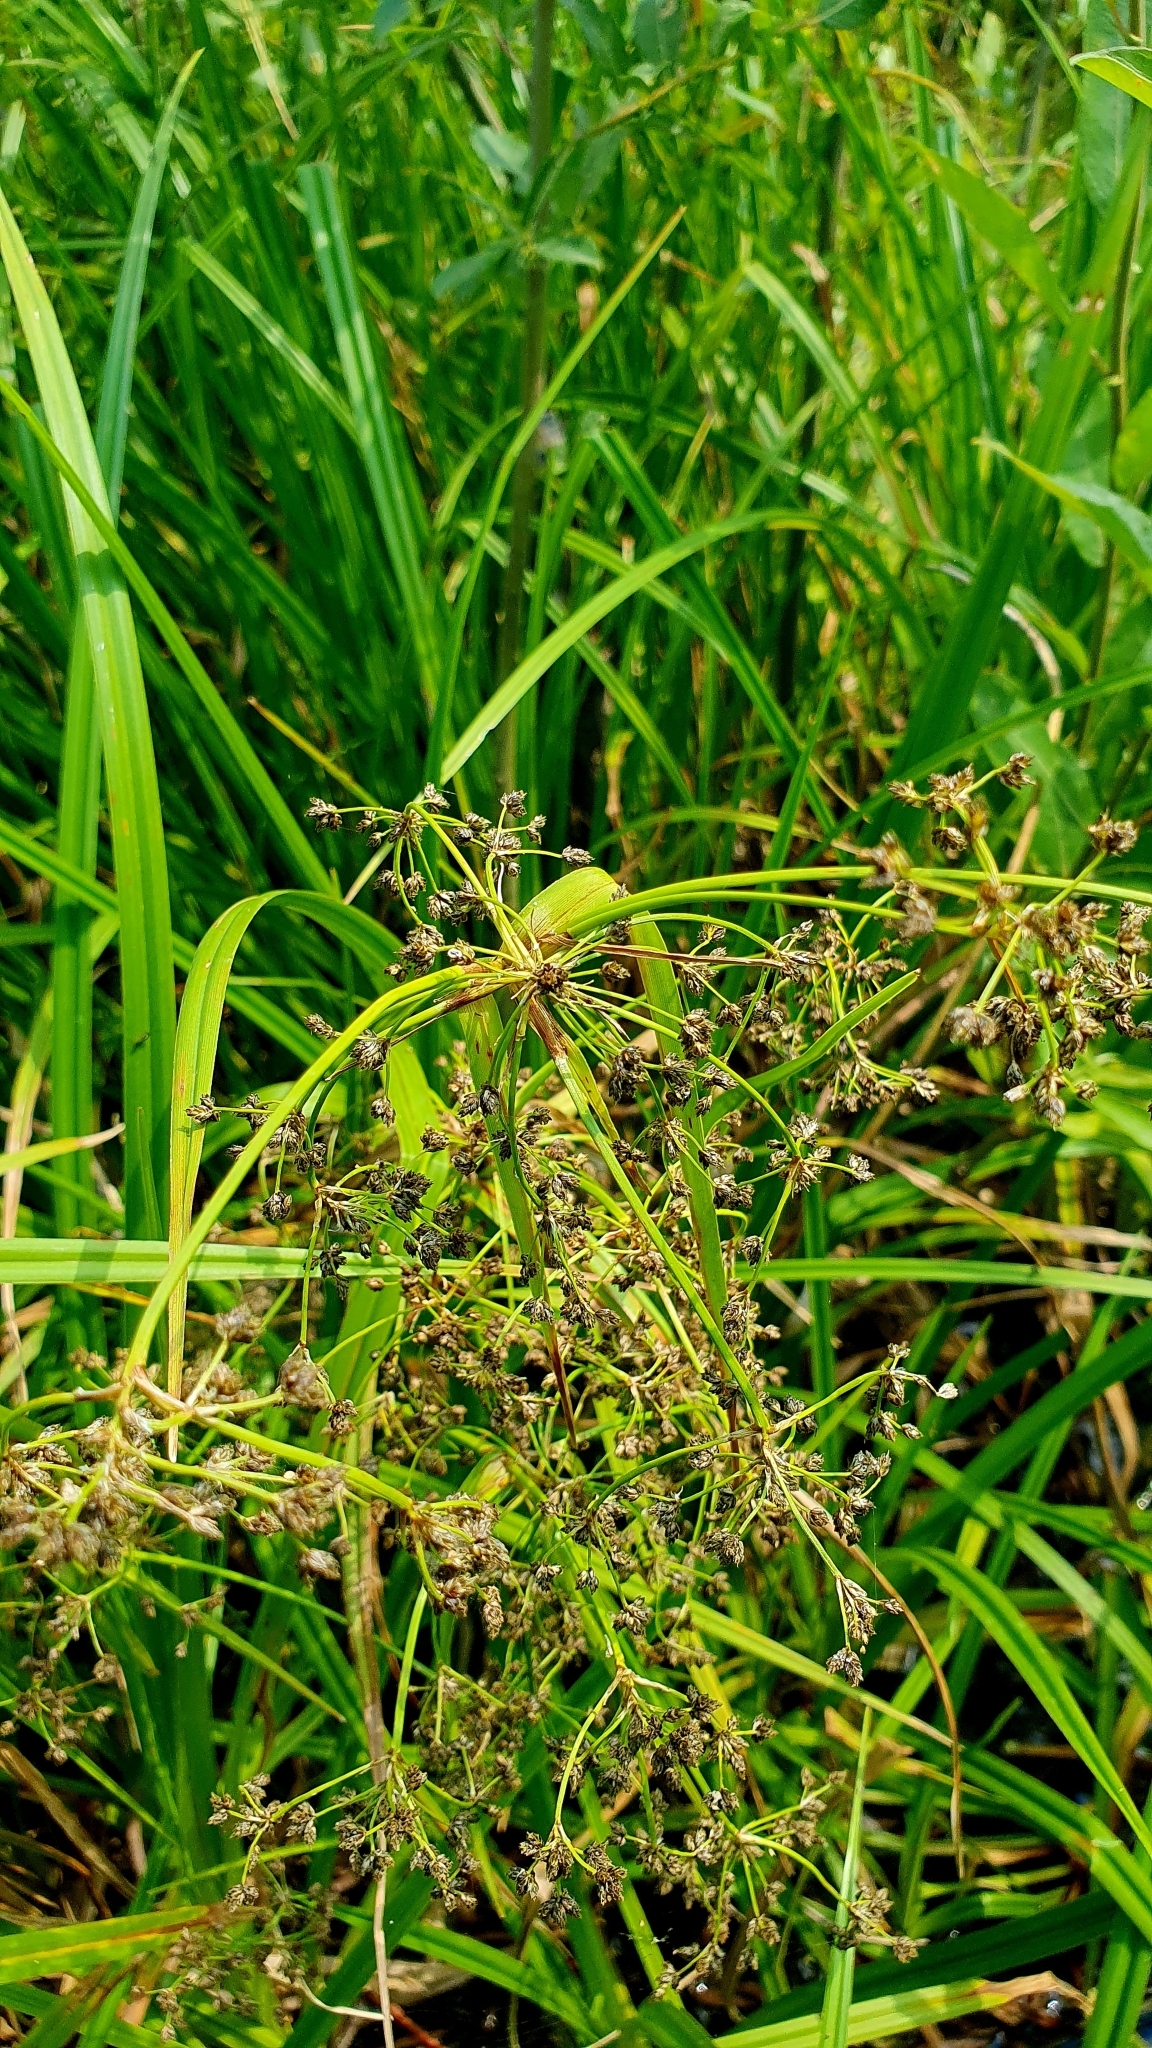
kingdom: Plantae
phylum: Tracheophyta
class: Liliopsida
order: Poales
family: Cyperaceae
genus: Scirpus
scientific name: Scirpus sylvaticus
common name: Wood club-rush
